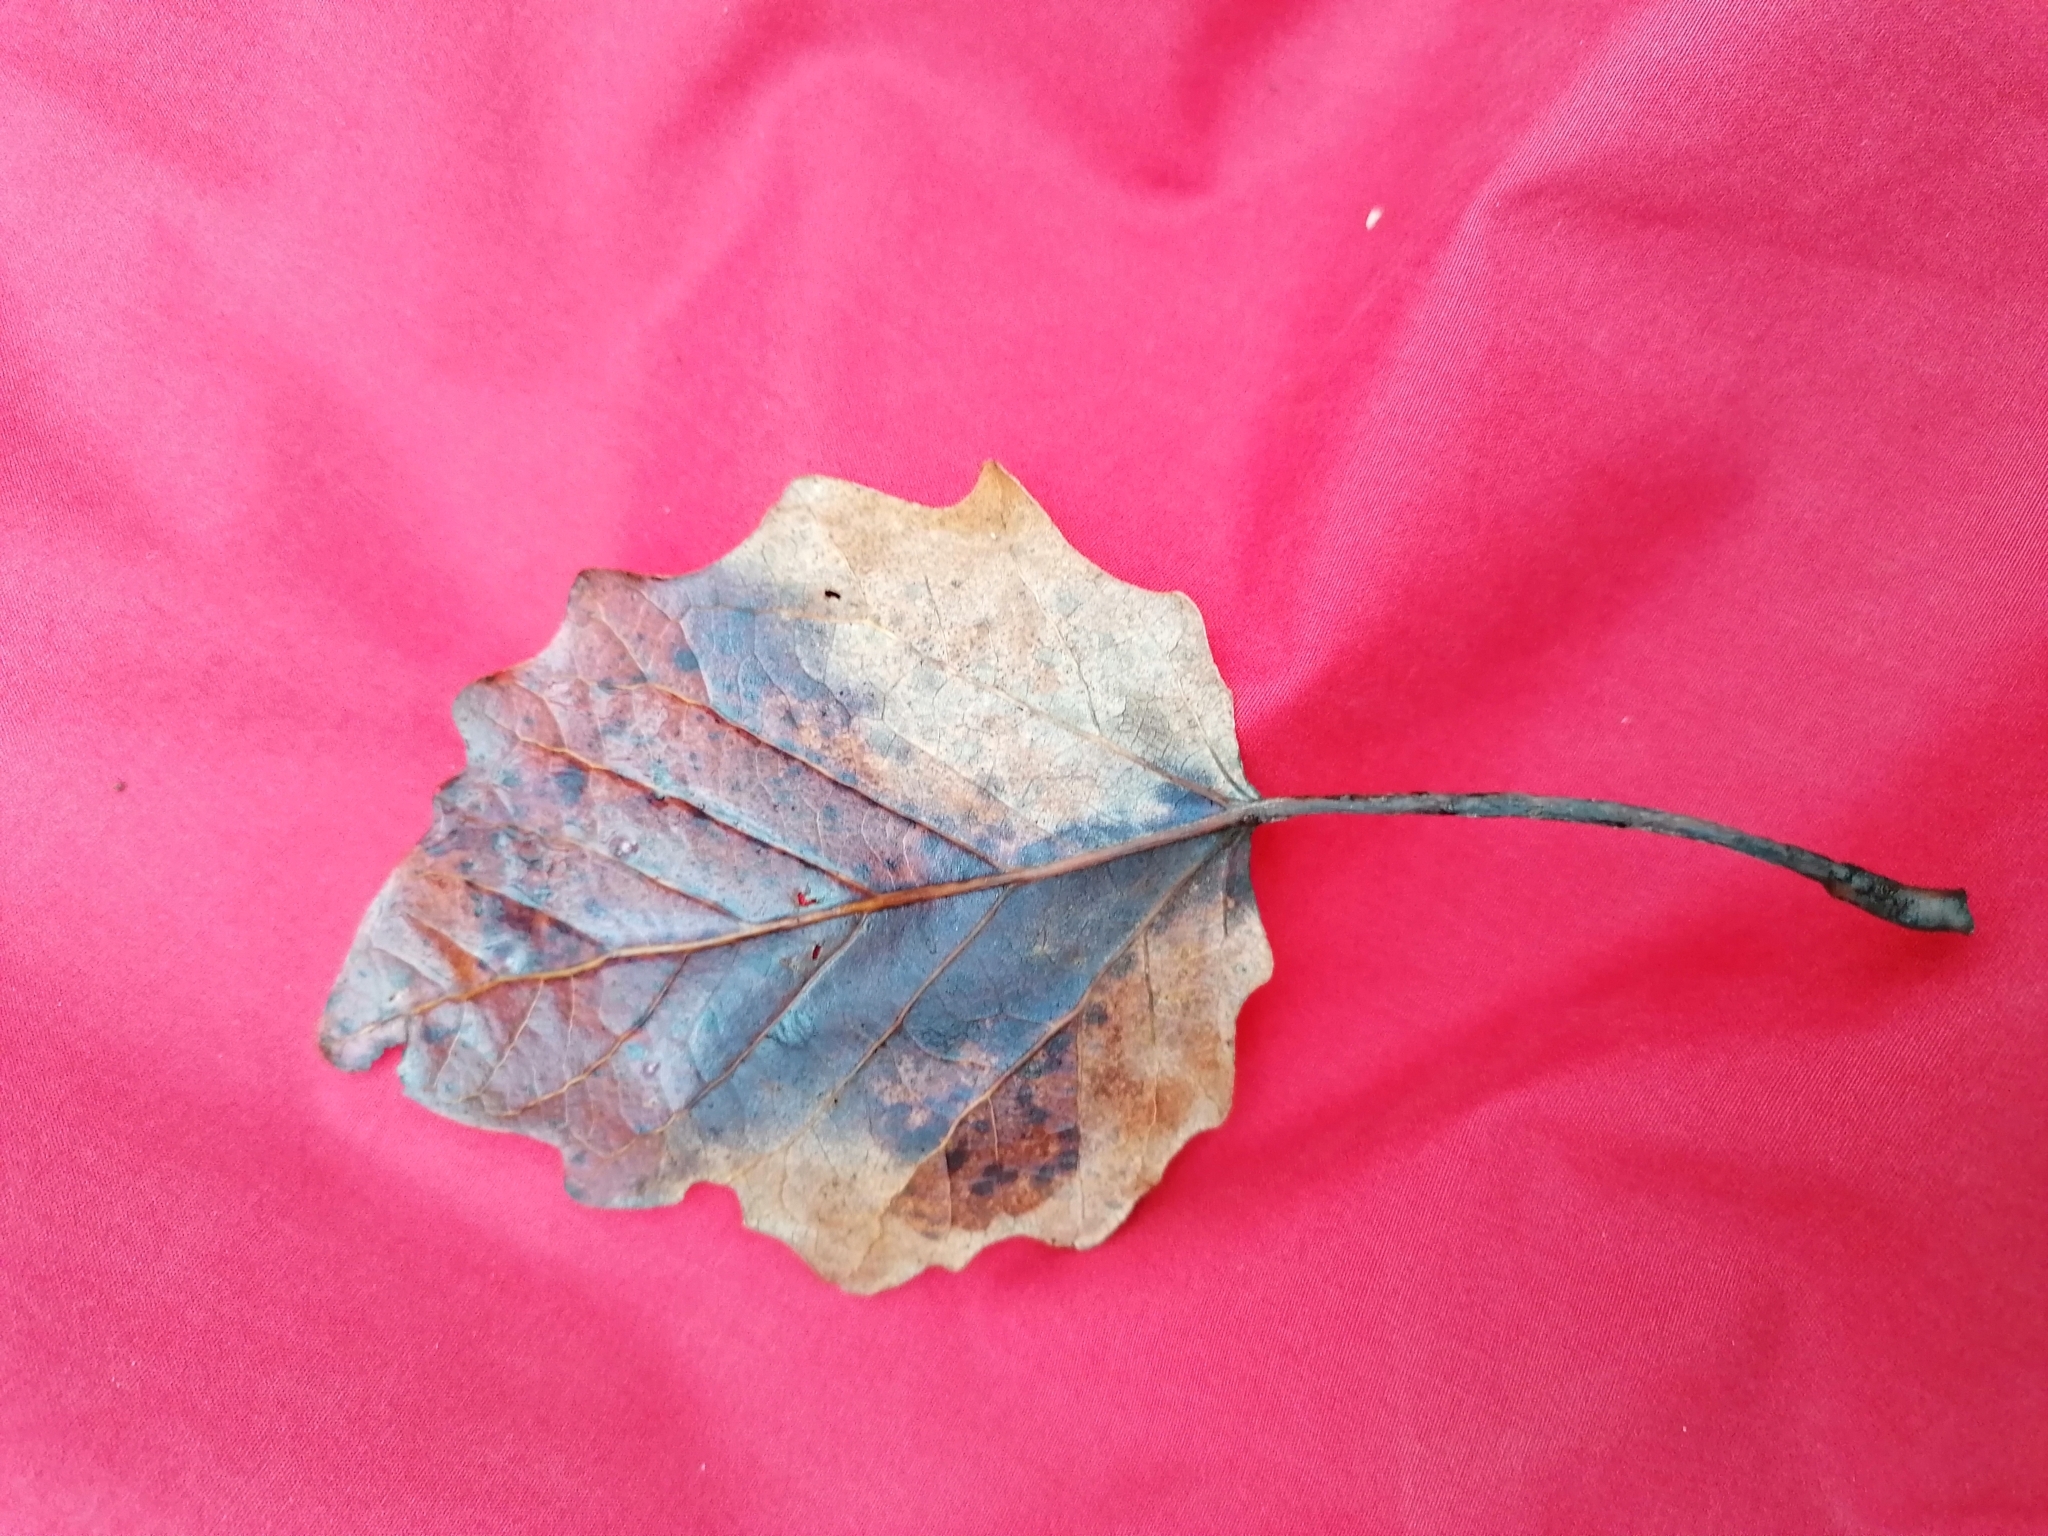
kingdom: Plantae
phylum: Tracheophyta
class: Magnoliopsida
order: Malpighiales
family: Salicaceae
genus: Populus
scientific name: Populus tremula
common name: European aspen
